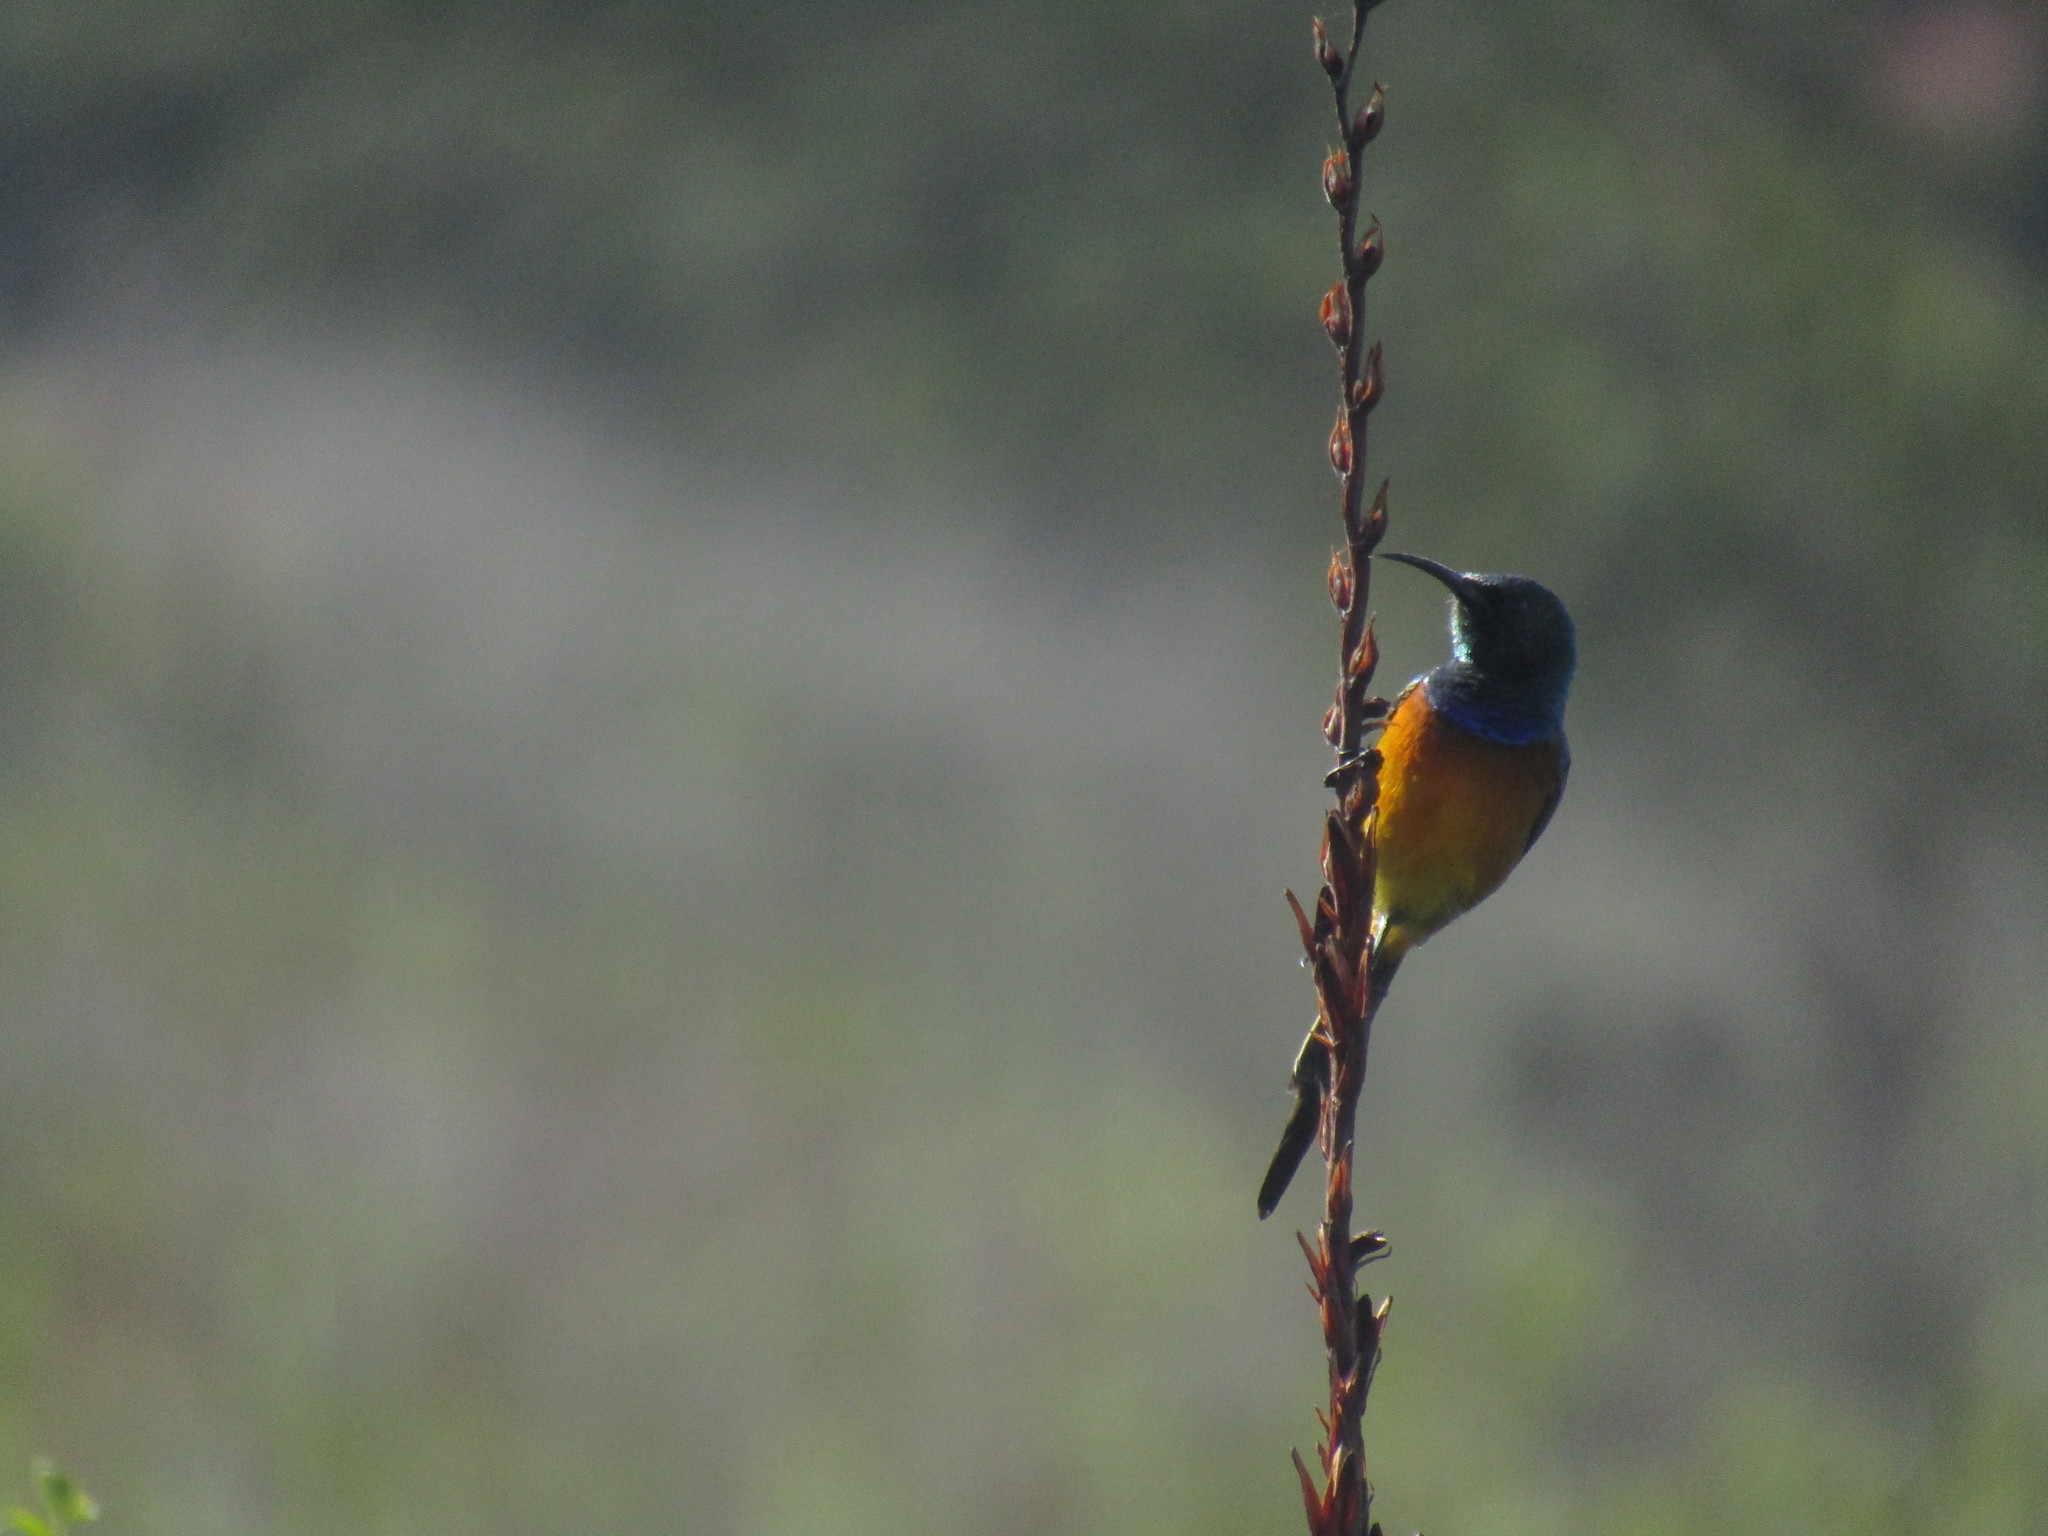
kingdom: Animalia
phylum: Chordata
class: Aves
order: Passeriformes
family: Nectariniidae
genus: Anthobaphes
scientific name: Anthobaphes violacea
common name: Orange-breasted sunbird
